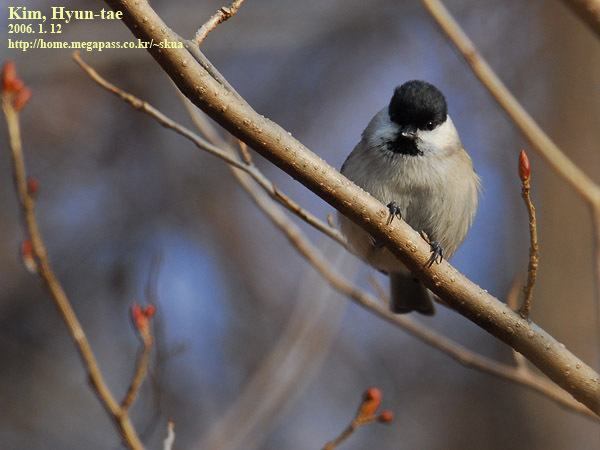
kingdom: Animalia
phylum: Chordata
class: Aves
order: Passeriformes
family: Paridae
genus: Poecile
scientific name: Poecile palustris
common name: Marsh tit
